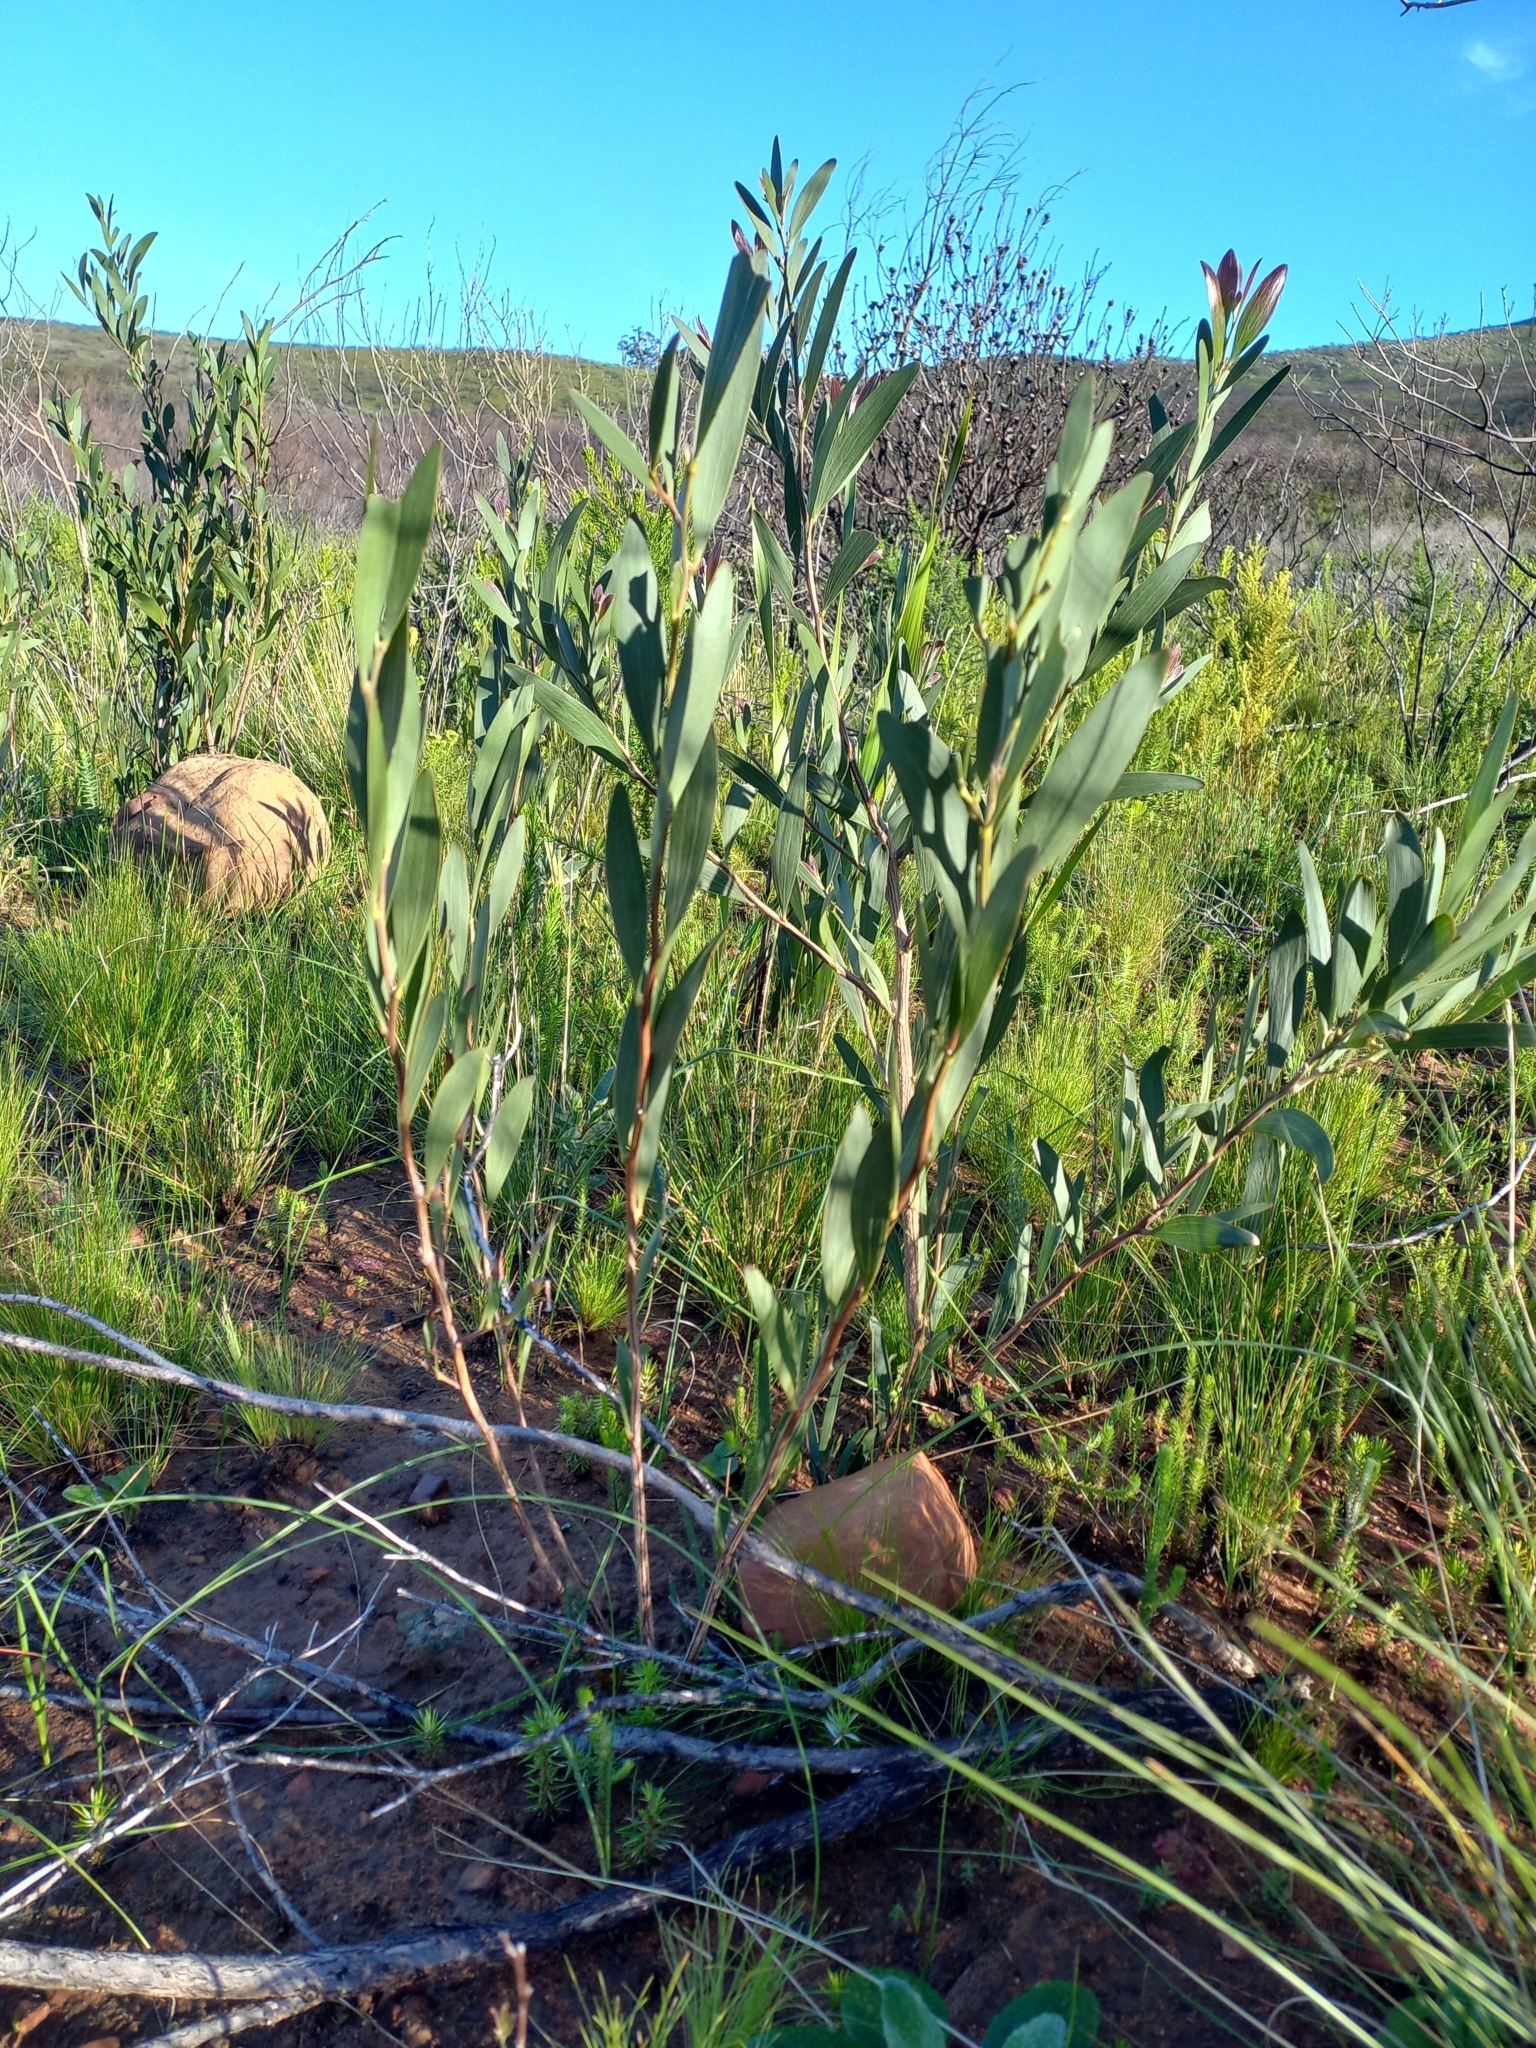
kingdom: Plantae
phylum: Tracheophyta
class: Magnoliopsida
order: Fabales
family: Fabaceae
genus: Acacia
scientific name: Acacia melanoxylon
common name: Blackwood
